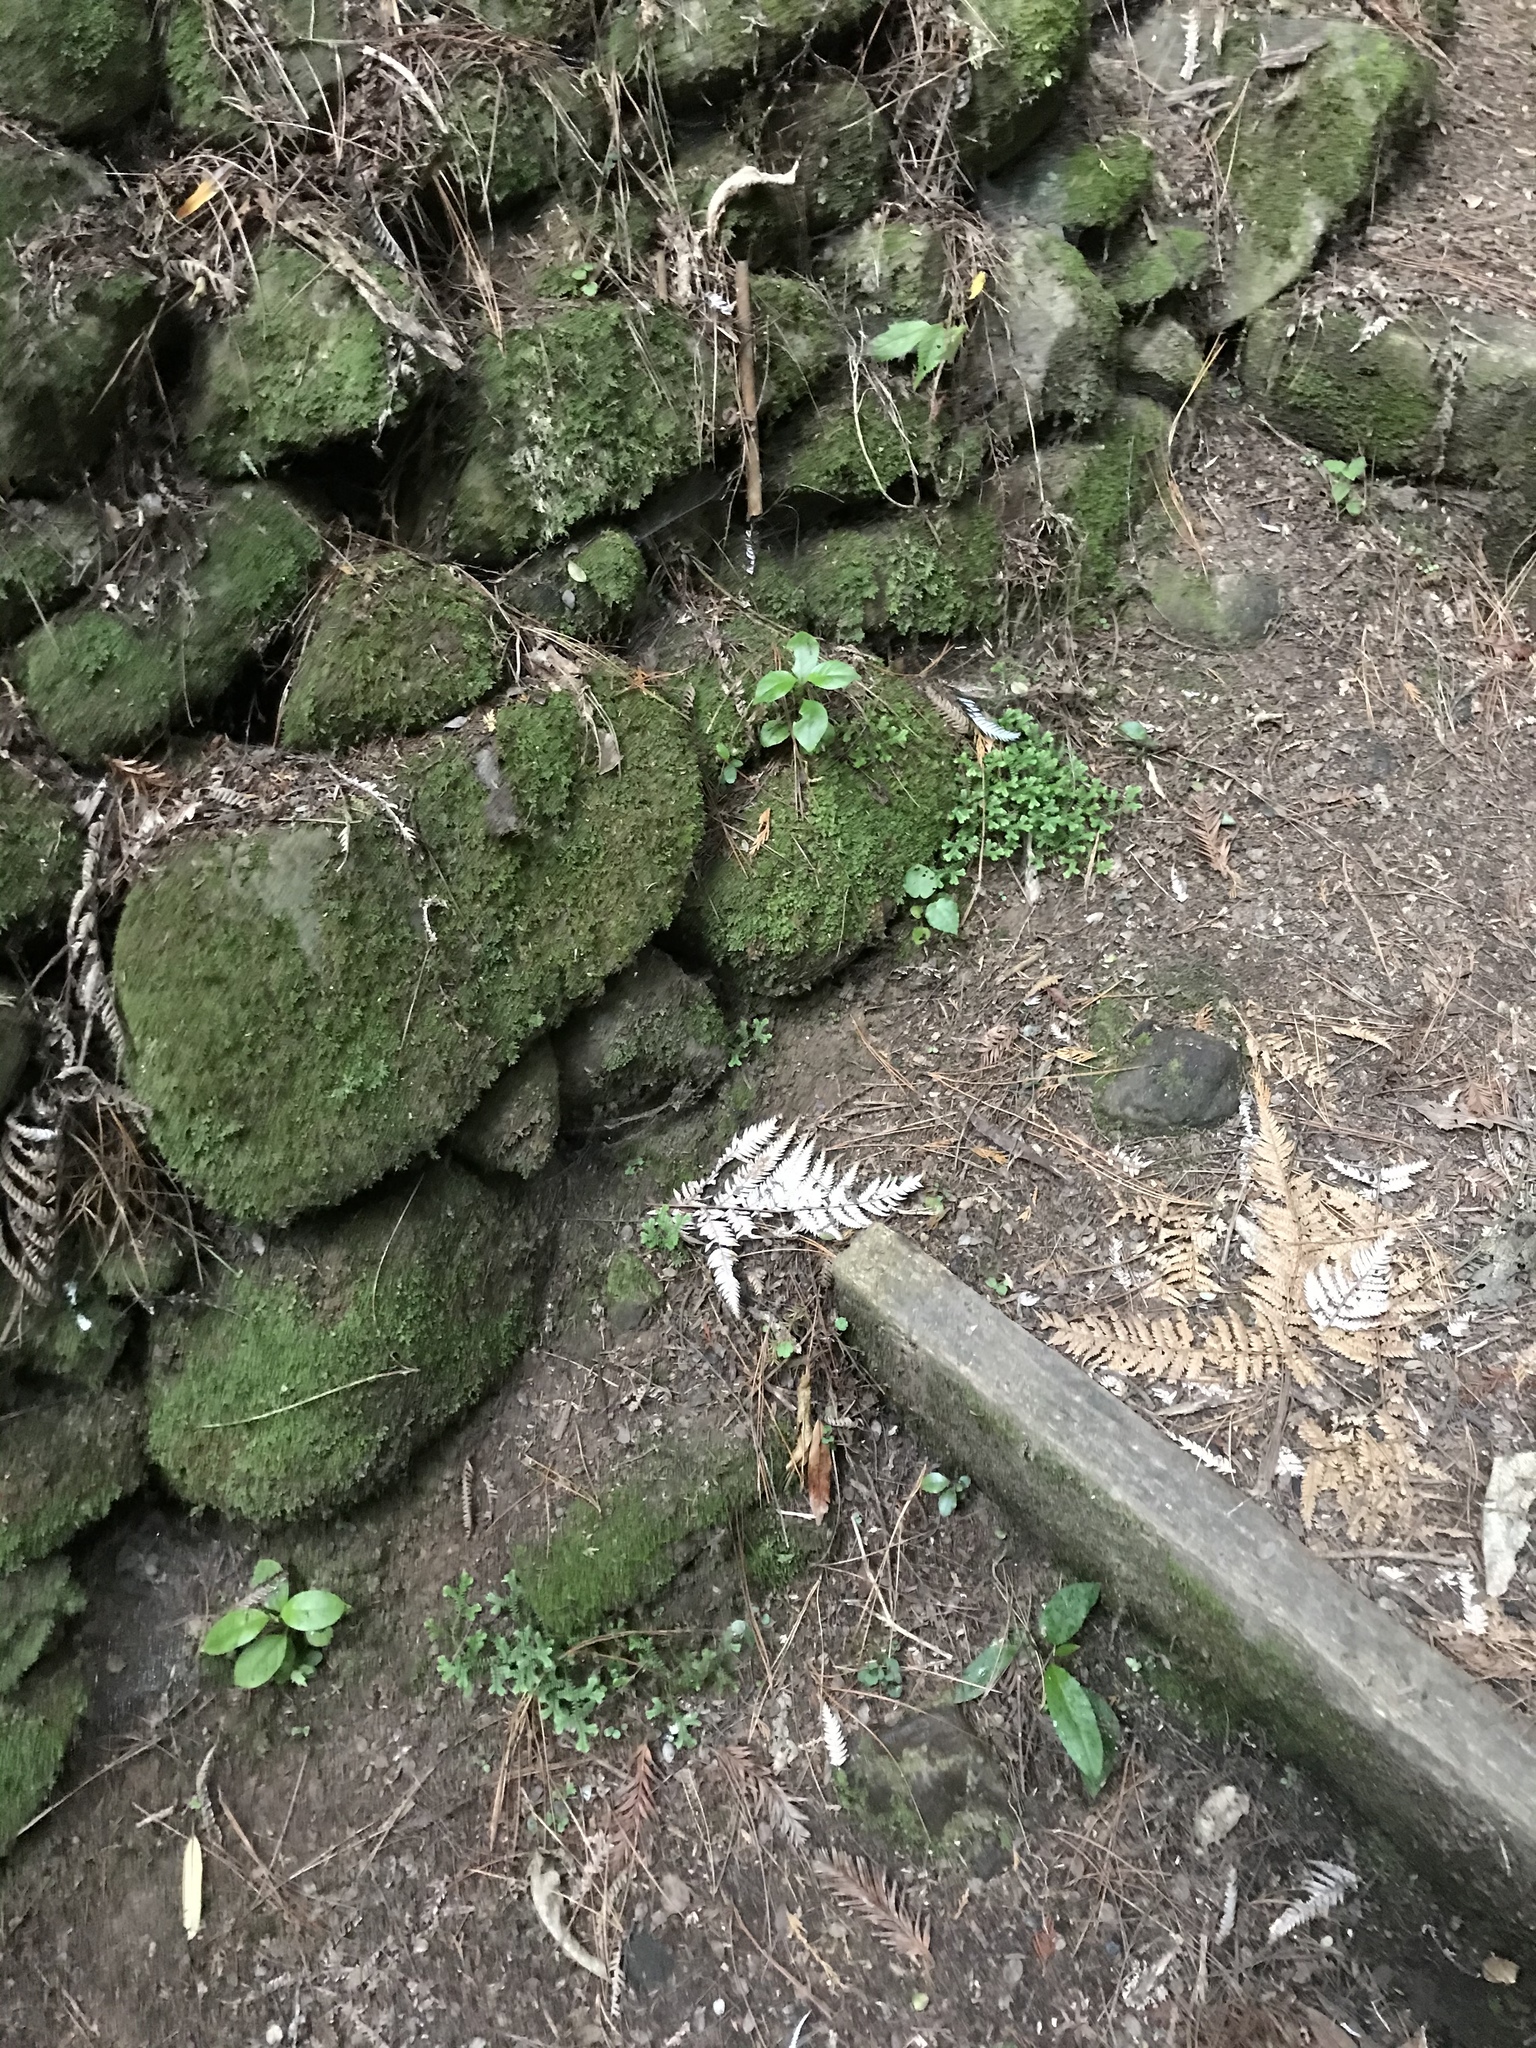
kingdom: Plantae
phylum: Tracheophyta
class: Lycopodiopsida
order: Selaginellales
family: Selaginellaceae
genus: Selaginella
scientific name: Selaginella kraussiana
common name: Krauss' spikemoss
